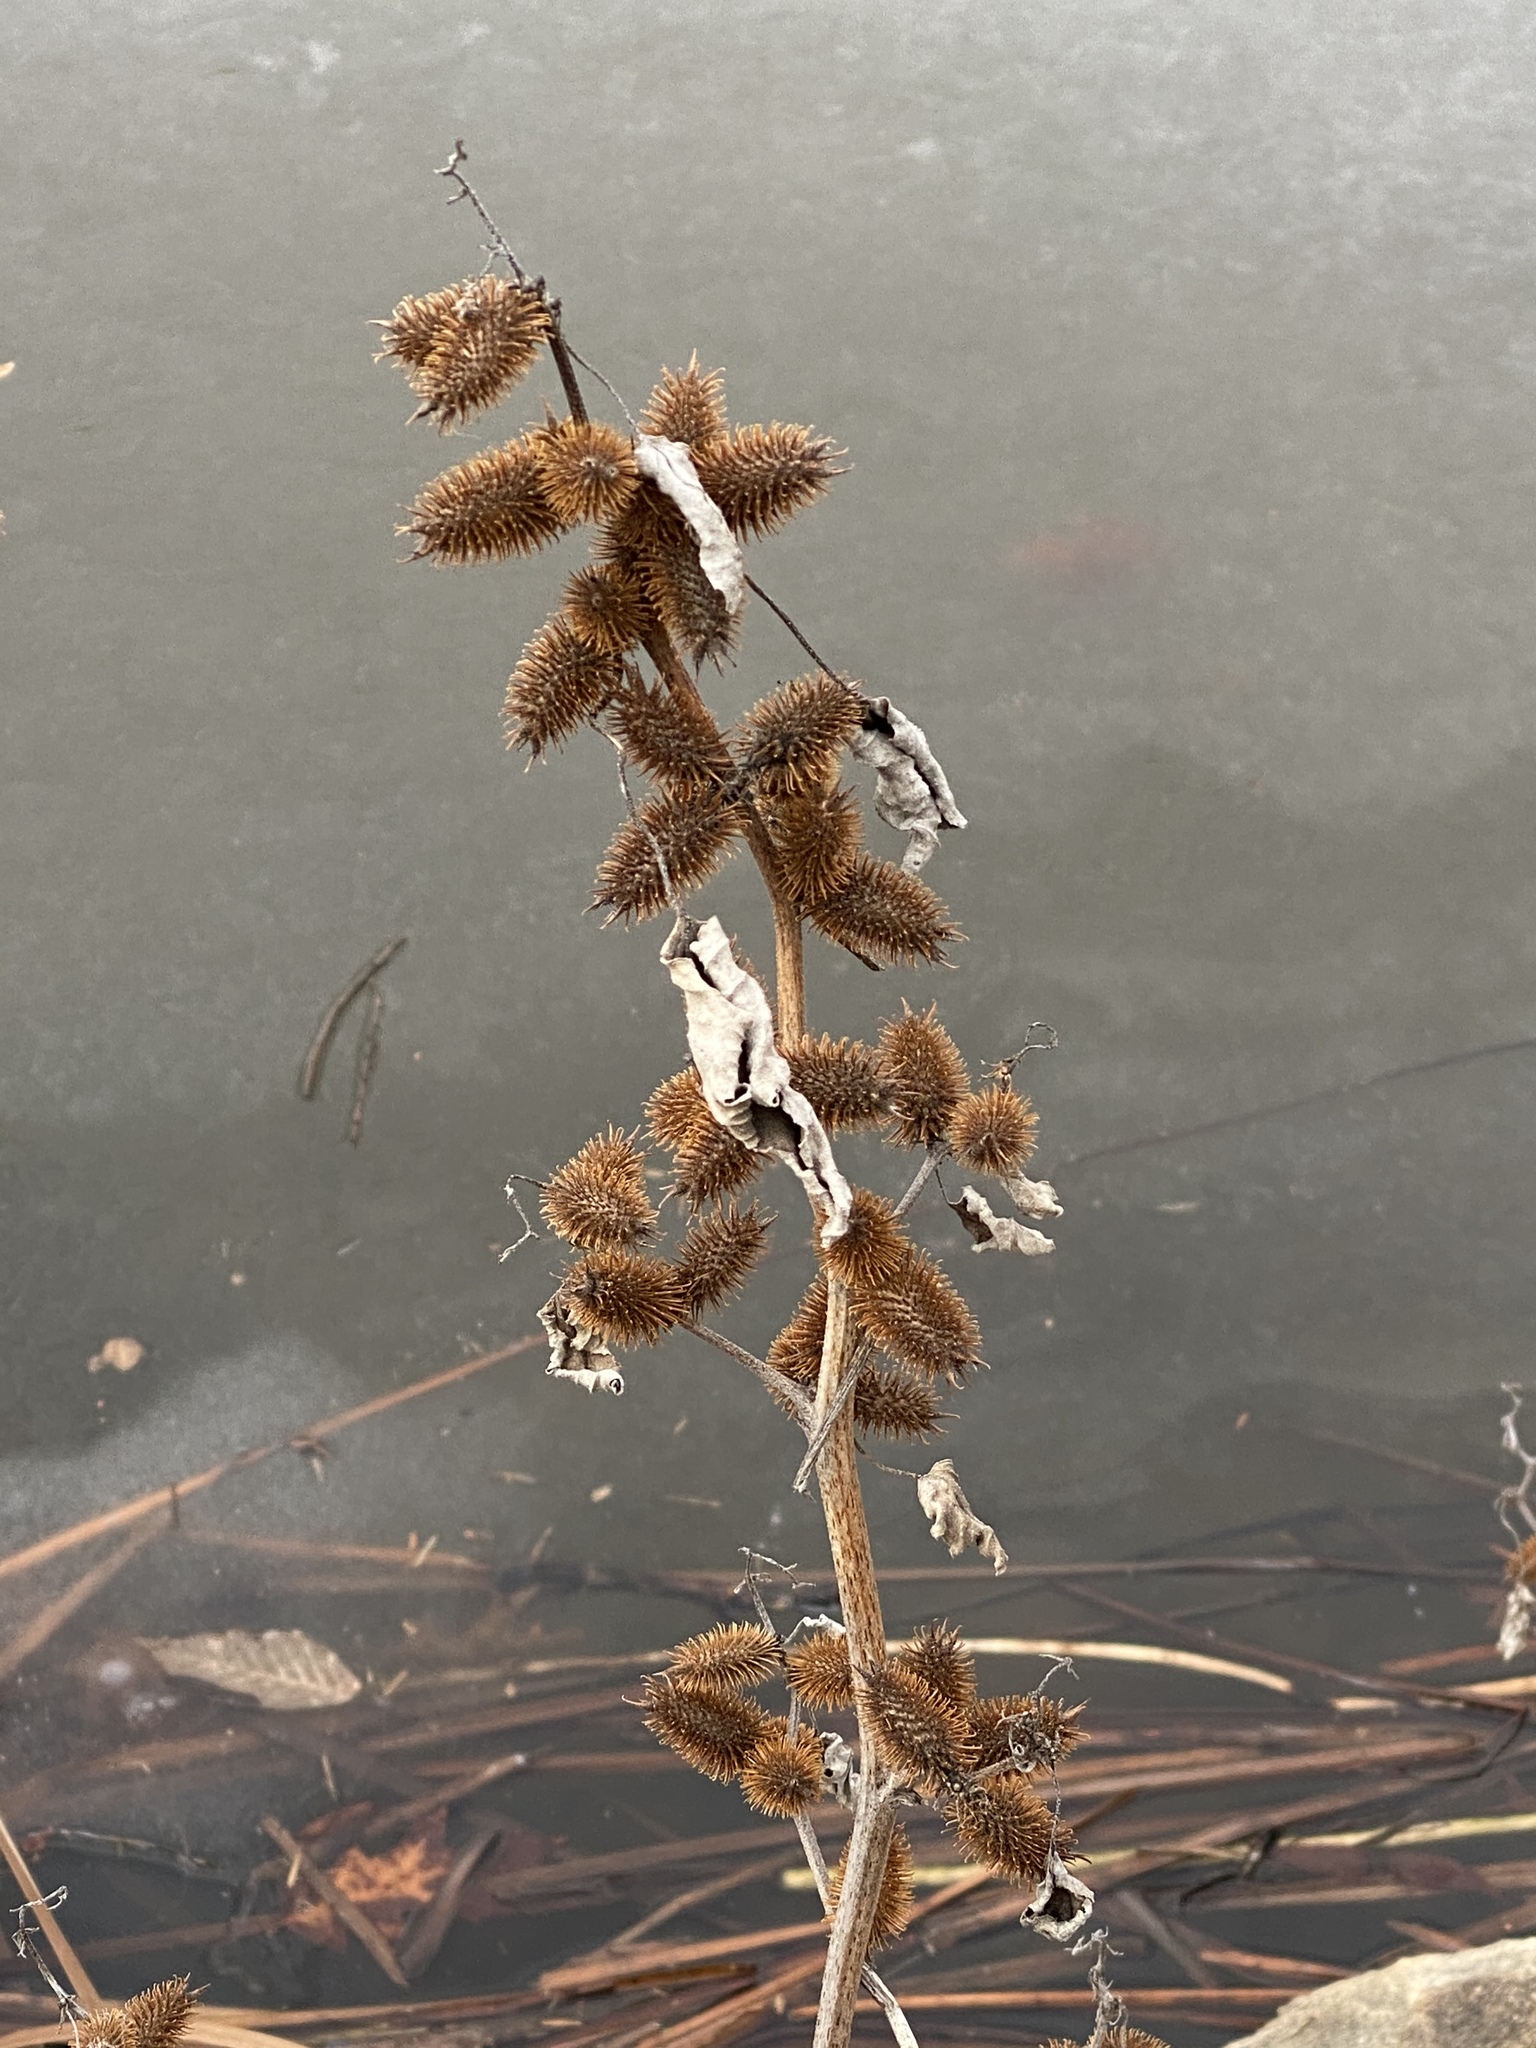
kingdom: Plantae
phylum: Tracheophyta
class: Magnoliopsida
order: Asterales
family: Asteraceae
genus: Xanthium
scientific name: Xanthium strumarium
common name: Rough cocklebur
